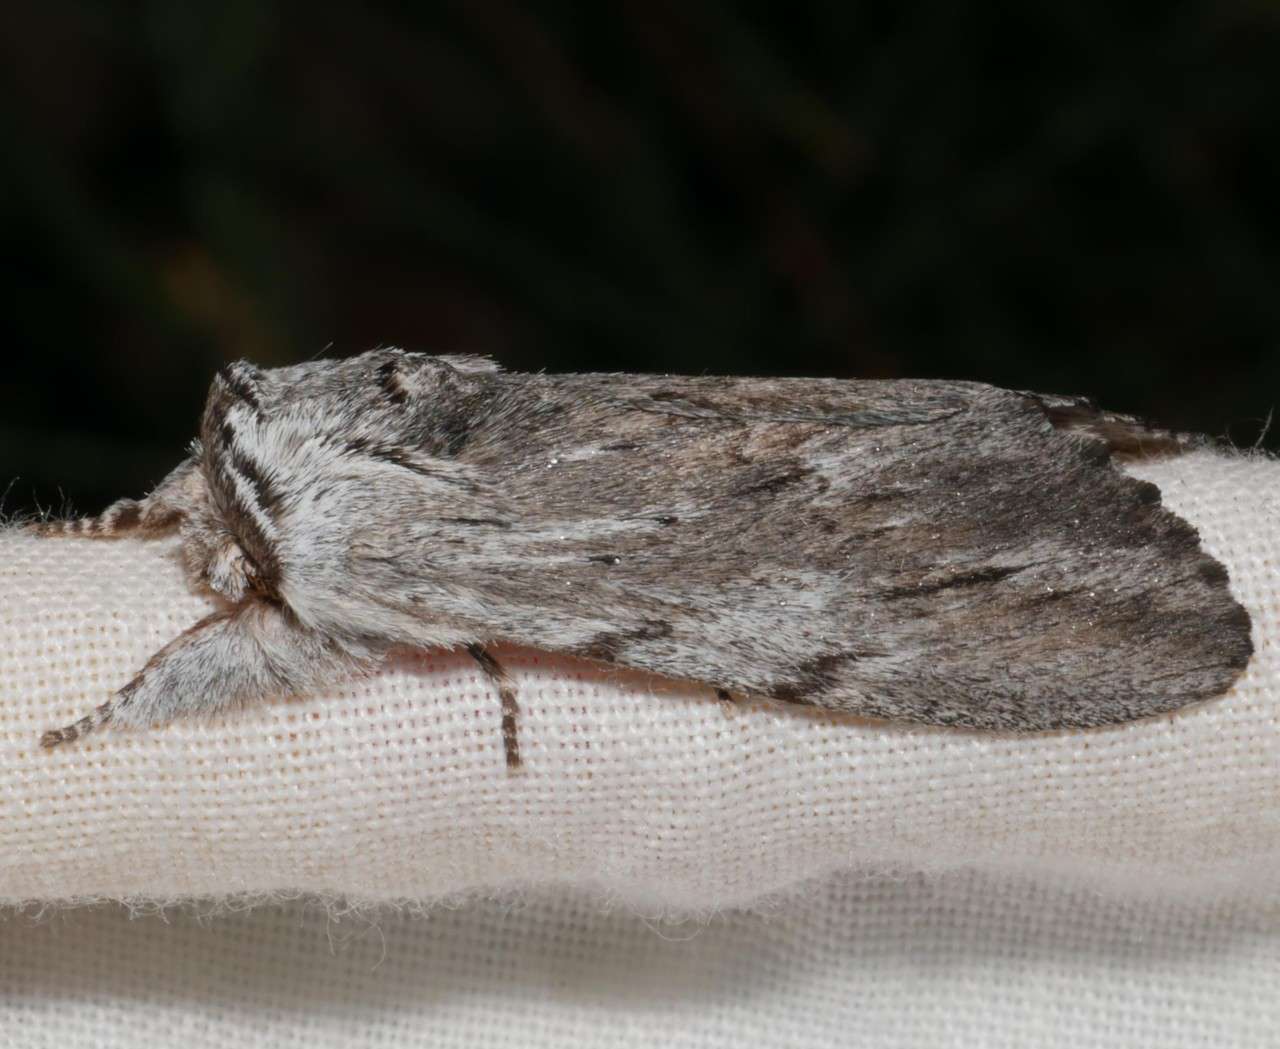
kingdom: Animalia
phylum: Arthropoda
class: Insecta
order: Lepidoptera
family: Notodontidae
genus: Destolmia
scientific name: Destolmia lineata
